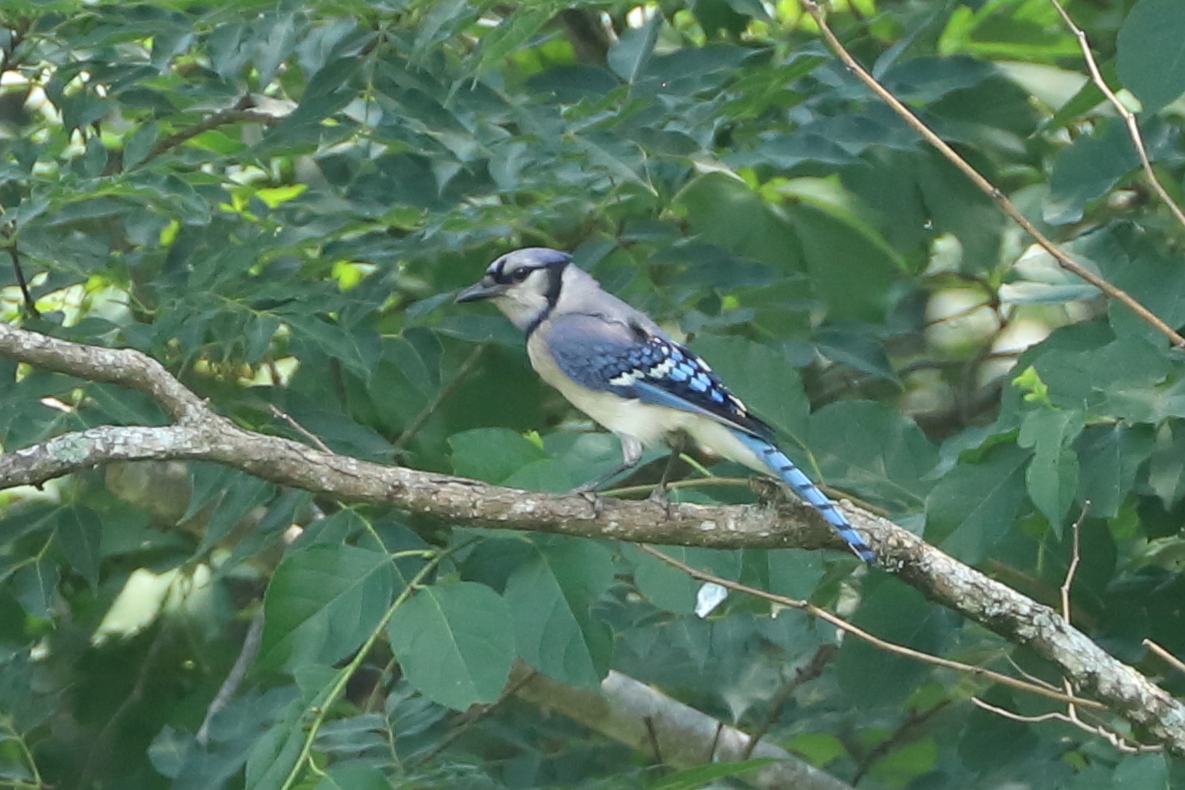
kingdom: Animalia
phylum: Chordata
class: Aves
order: Passeriformes
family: Corvidae
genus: Cyanocitta
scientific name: Cyanocitta cristata
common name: Blue jay
